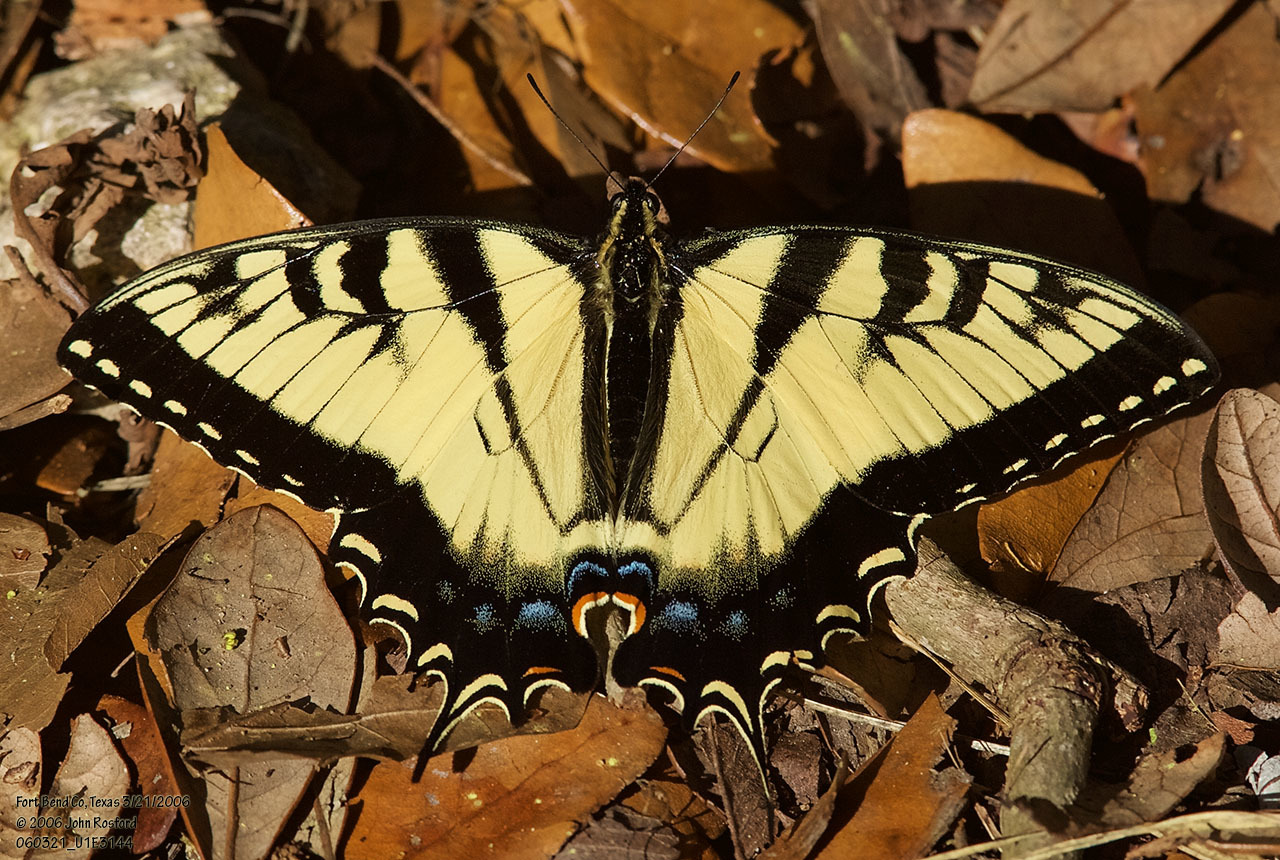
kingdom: Animalia
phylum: Arthropoda
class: Insecta
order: Lepidoptera
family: Papilionidae
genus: Papilio
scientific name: Papilio glaucus
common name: Tiger swallowtail
